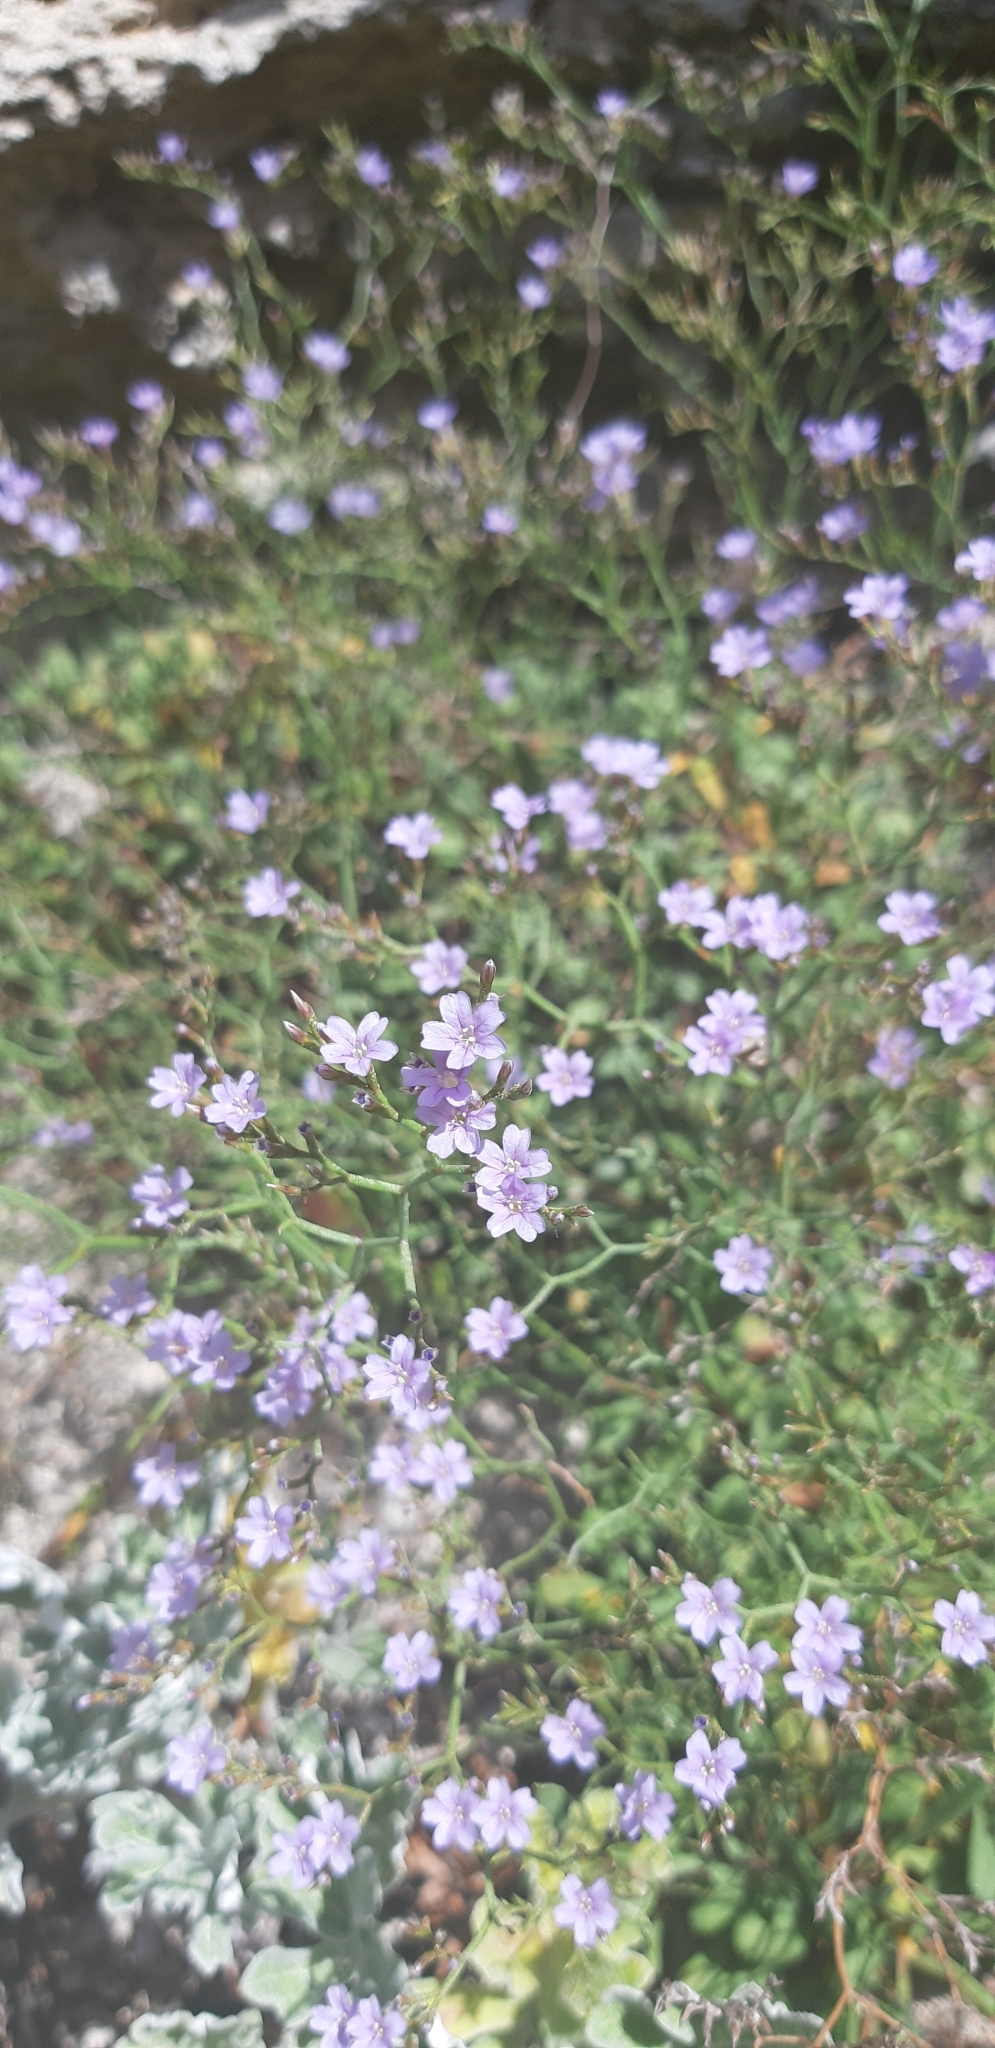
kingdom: Plantae
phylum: Tracheophyta
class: Magnoliopsida
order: Caryophyllales
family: Plumbaginaceae
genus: Limonium
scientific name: Limonium planesiae
